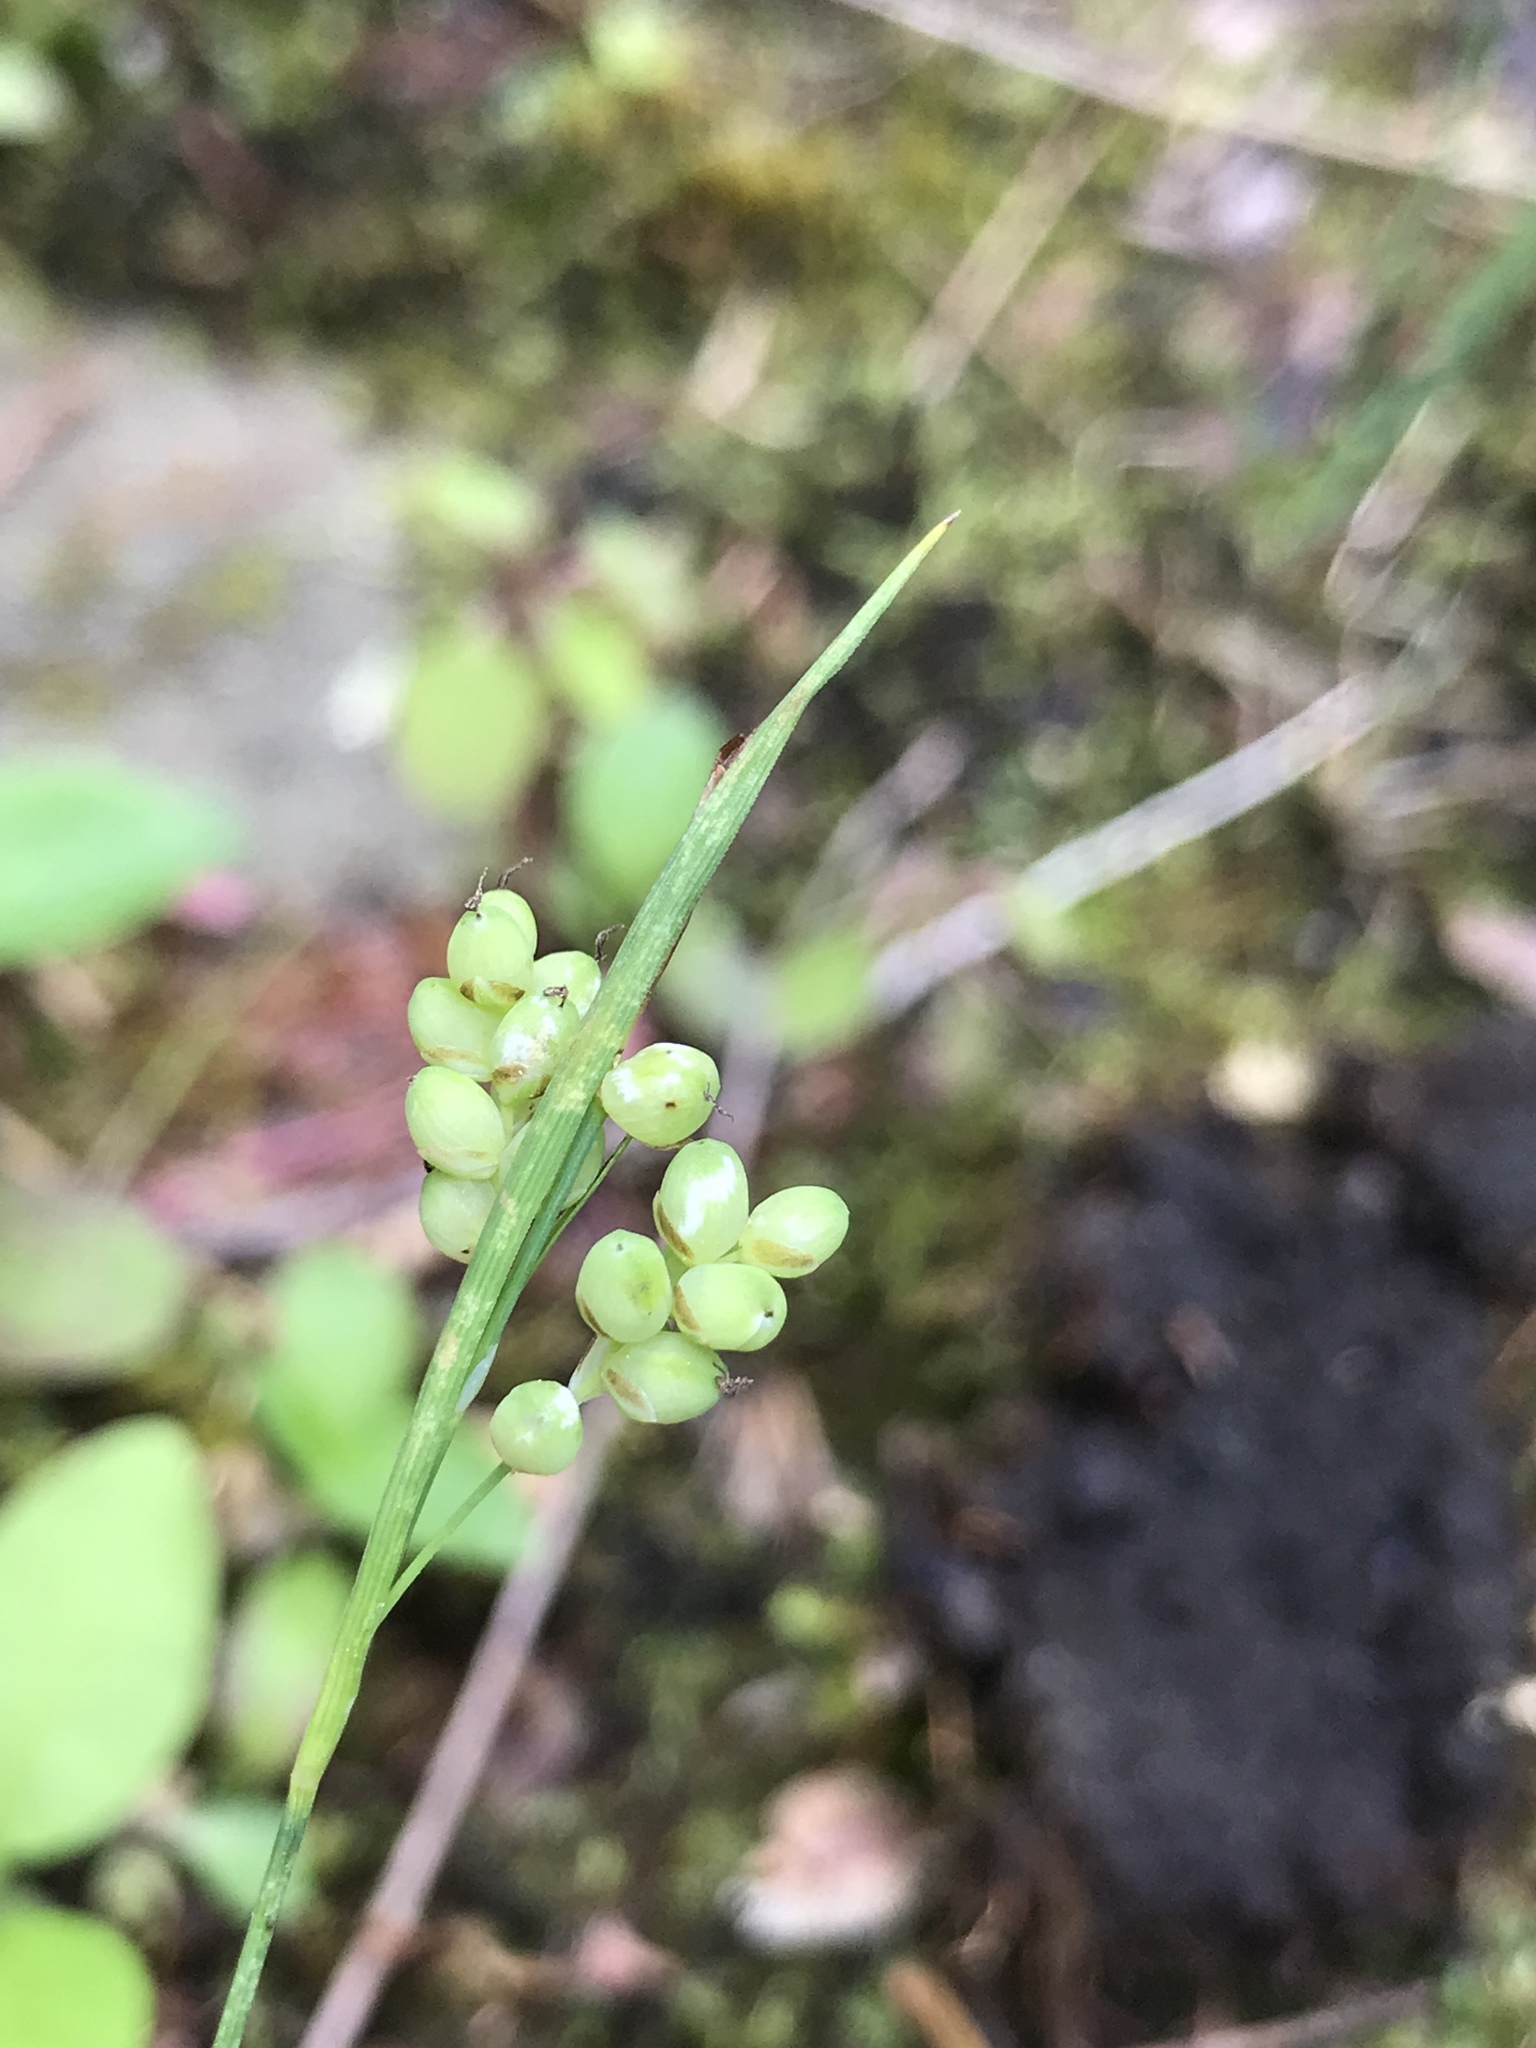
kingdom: Plantae
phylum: Tracheophyta
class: Liliopsida
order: Poales
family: Cyperaceae
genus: Carex
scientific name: Carex aurea
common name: Golden sedge
